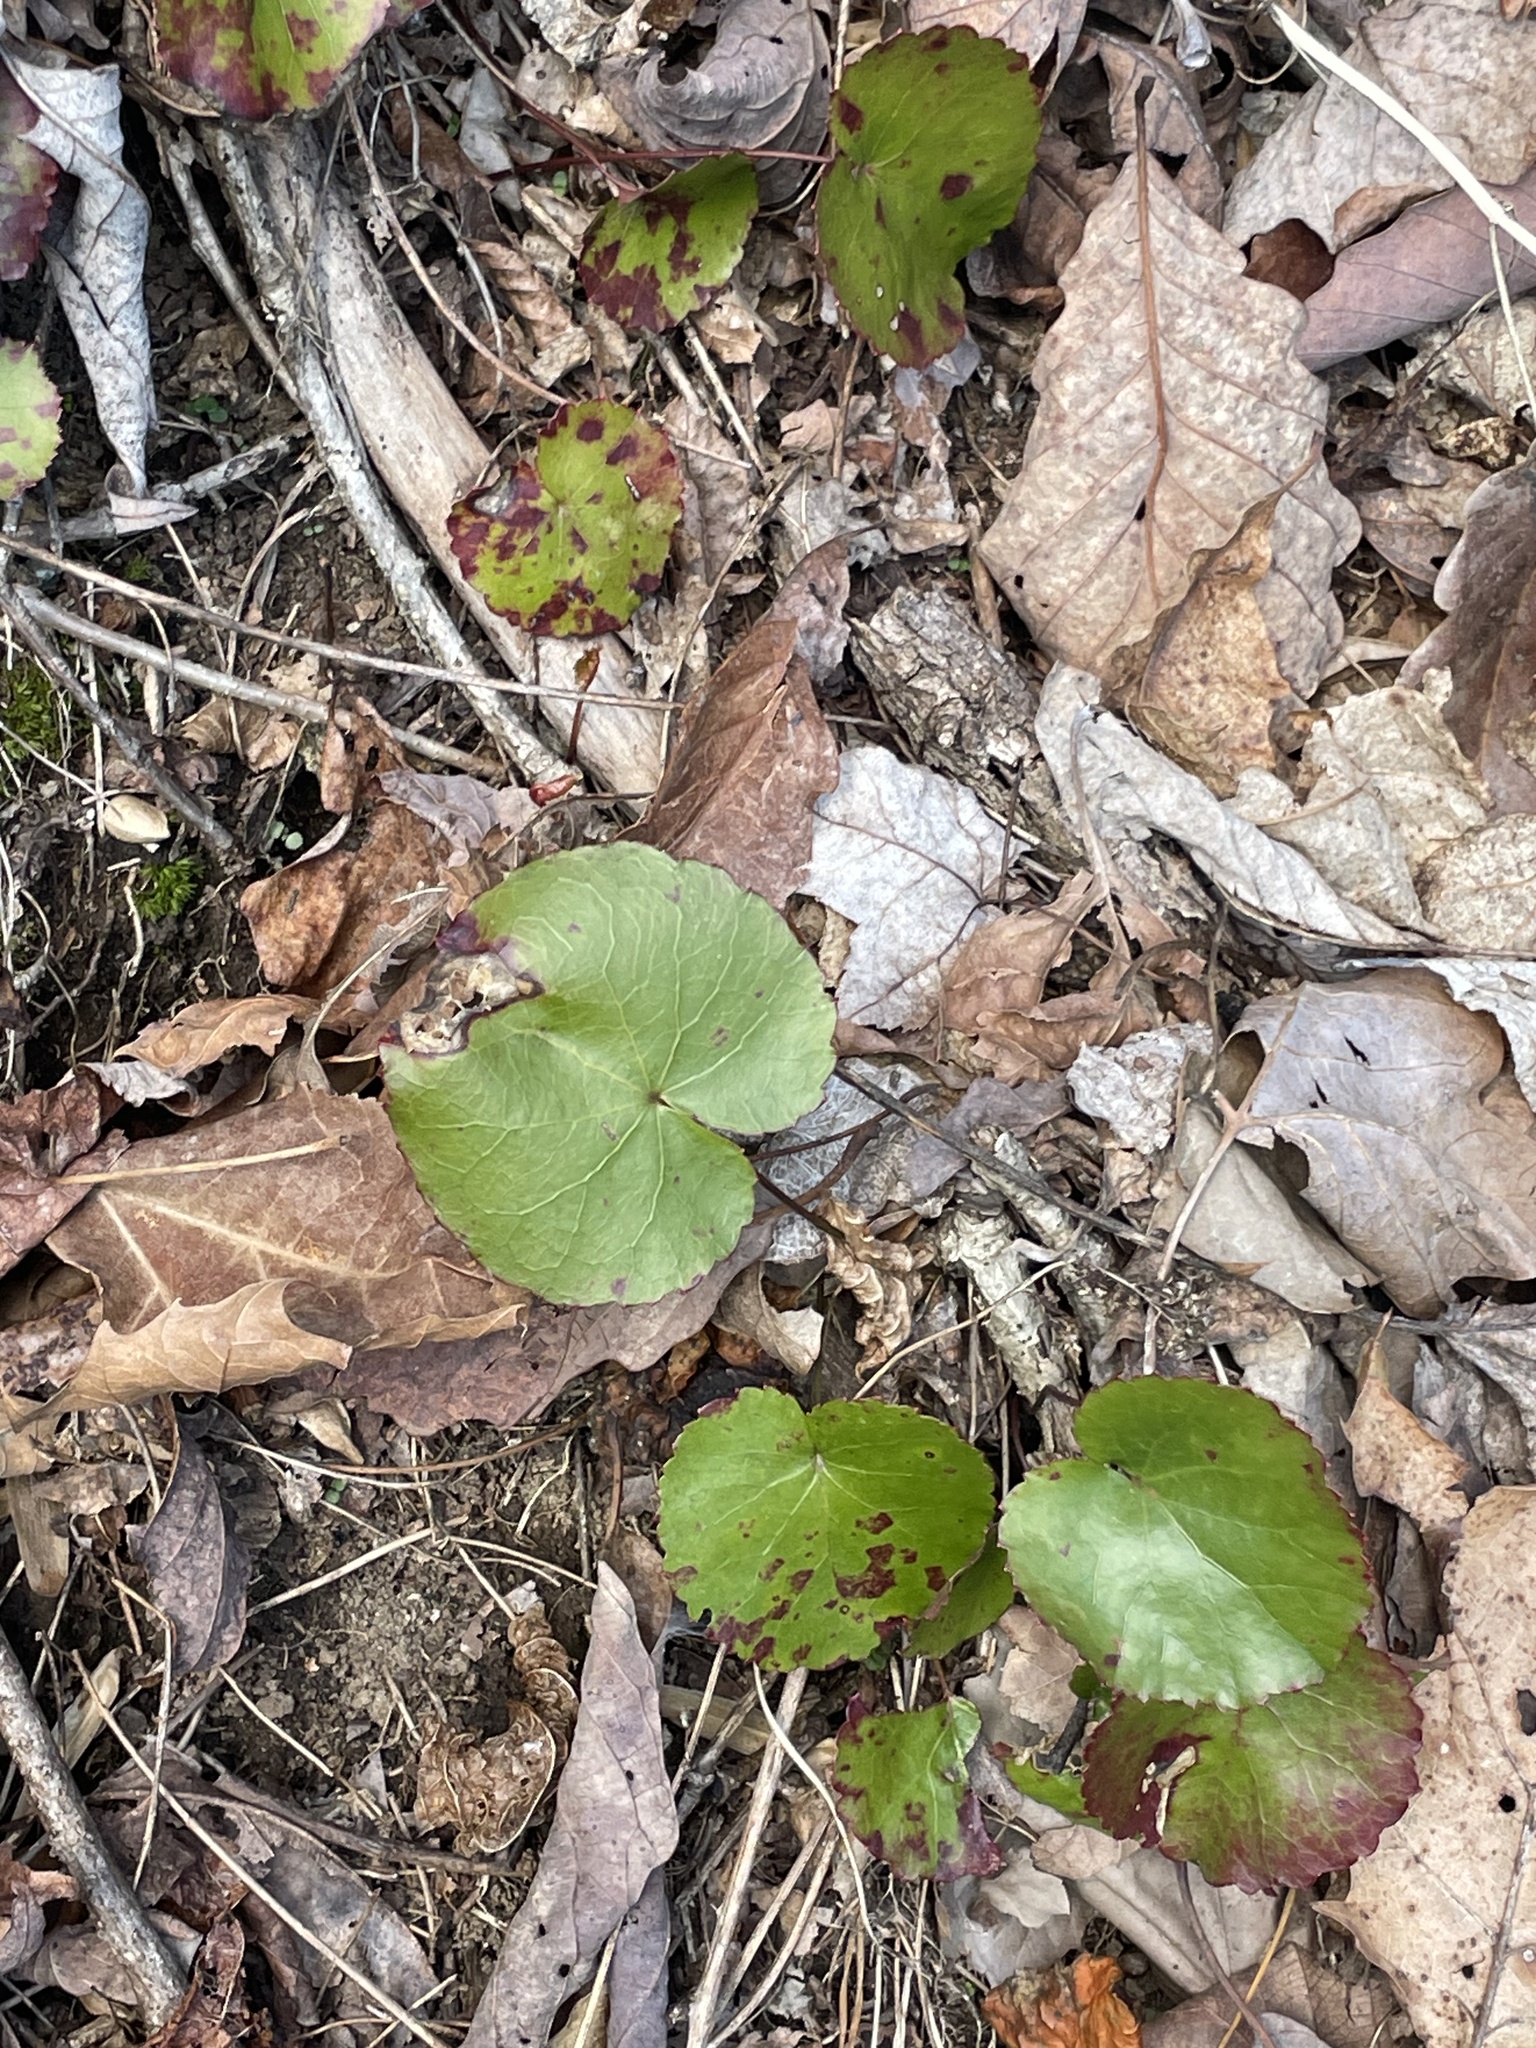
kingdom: Plantae
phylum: Tracheophyta
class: Magnoliopsida
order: Ericales
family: Diapensiaceae
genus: Galax
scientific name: Galax urceolata
